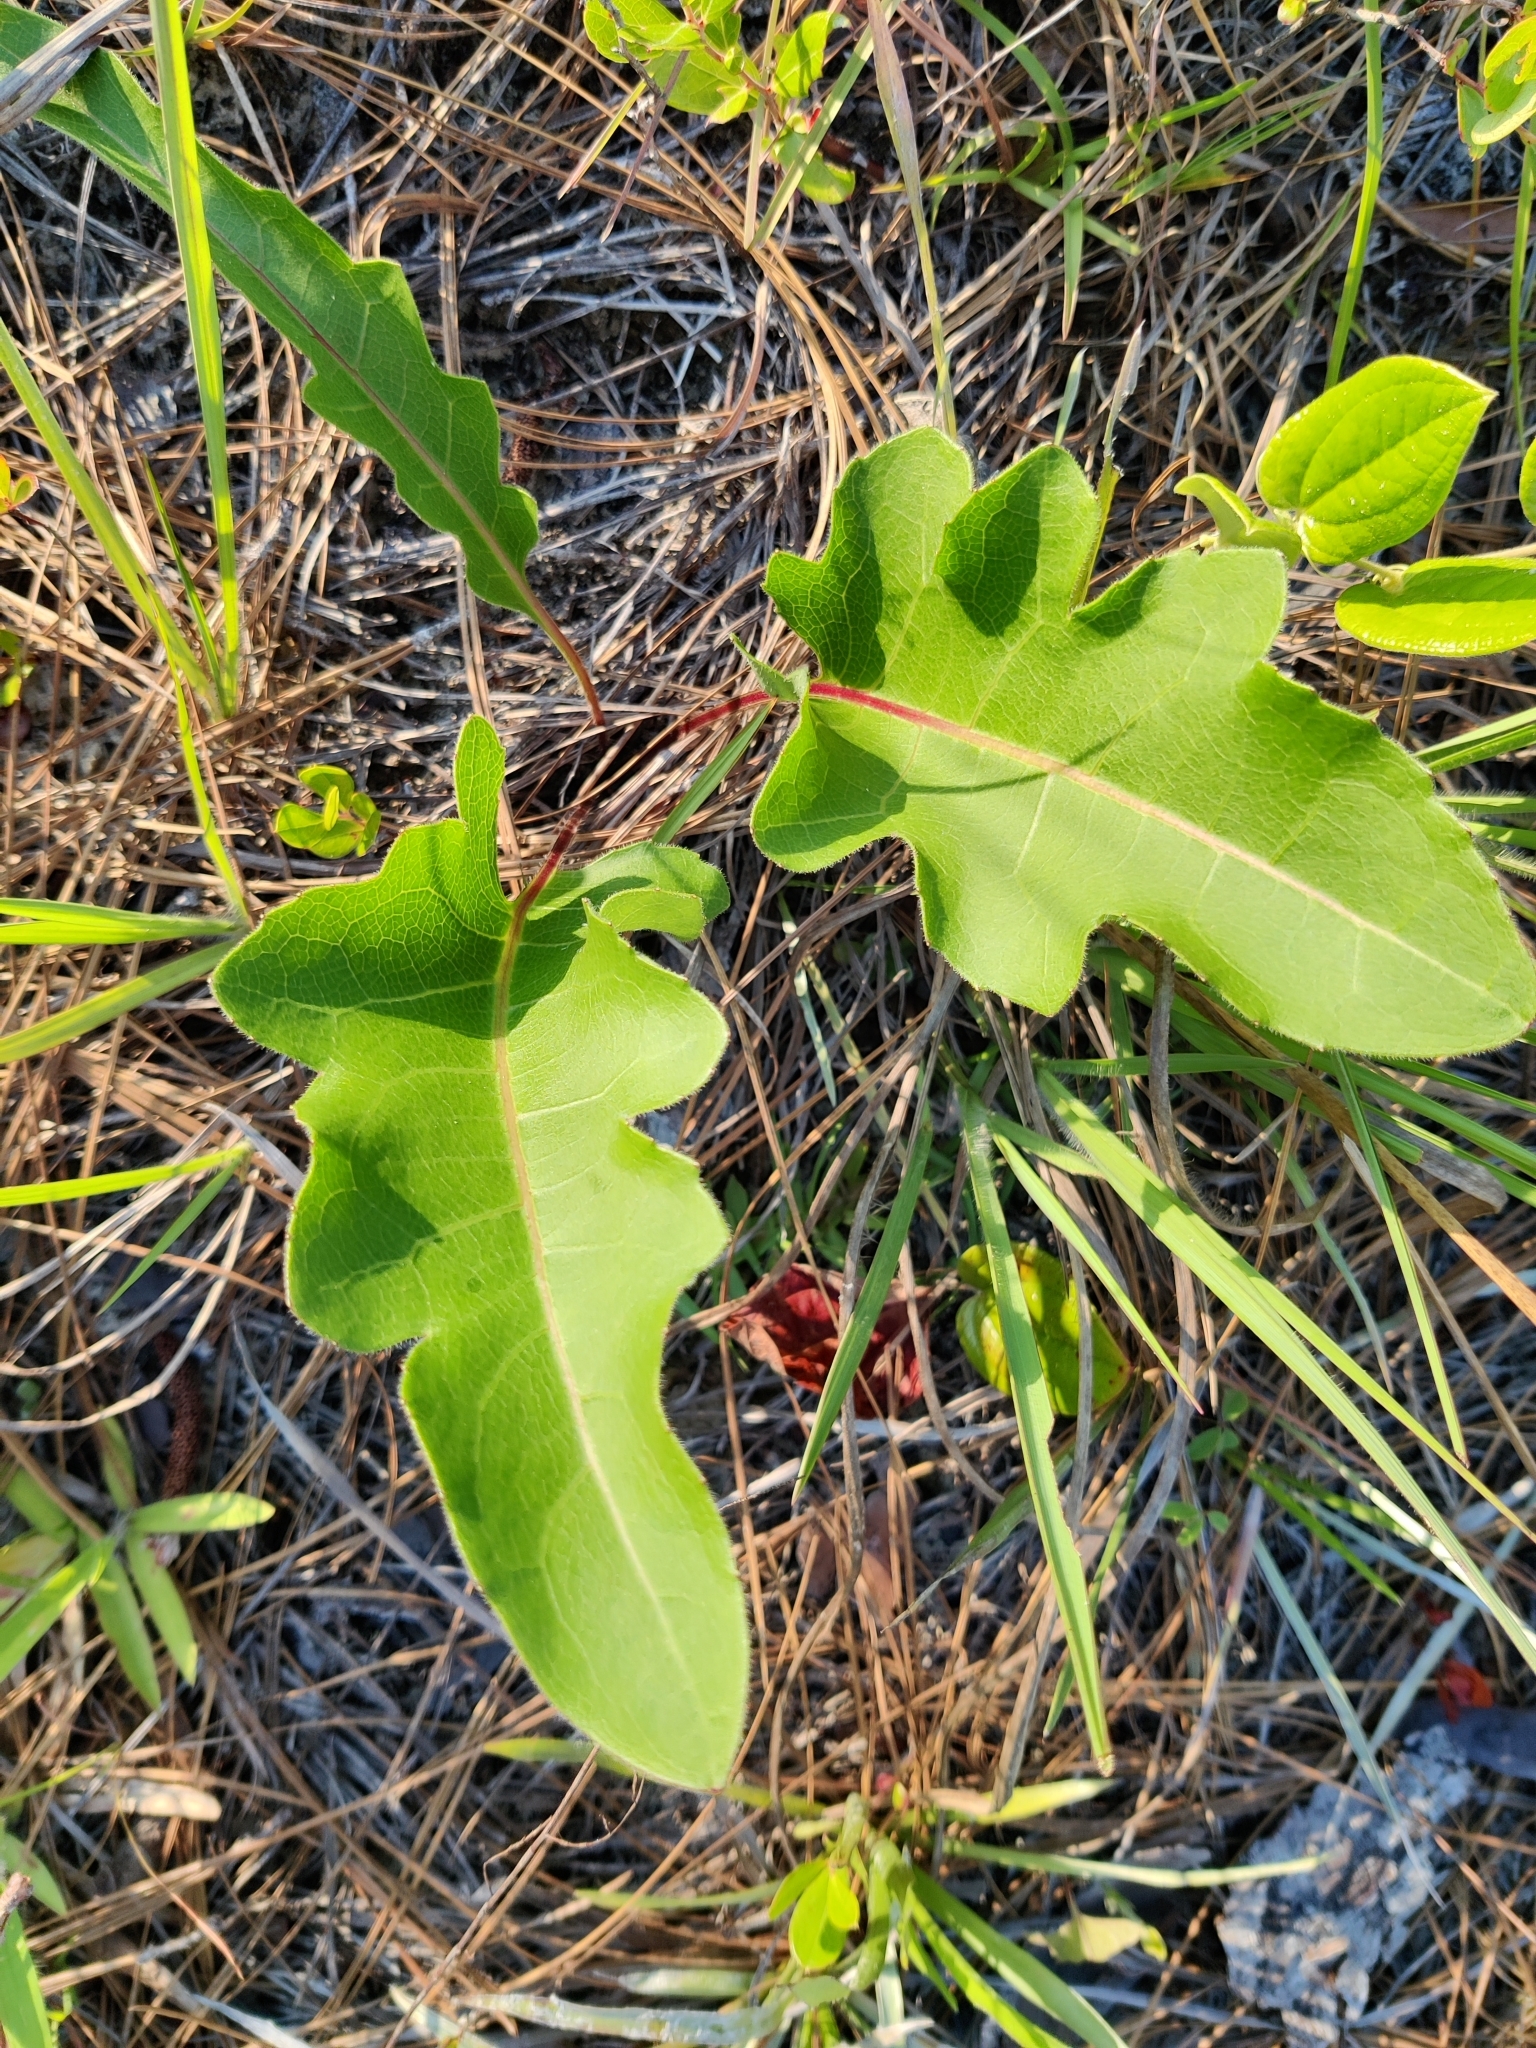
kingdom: Plantae
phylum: Tracheophyta
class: Magnoliopsida
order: Asterales
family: Asteraceae
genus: Silphium
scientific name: Silphium compositum
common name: Lesser basal-leaf rosinweed
